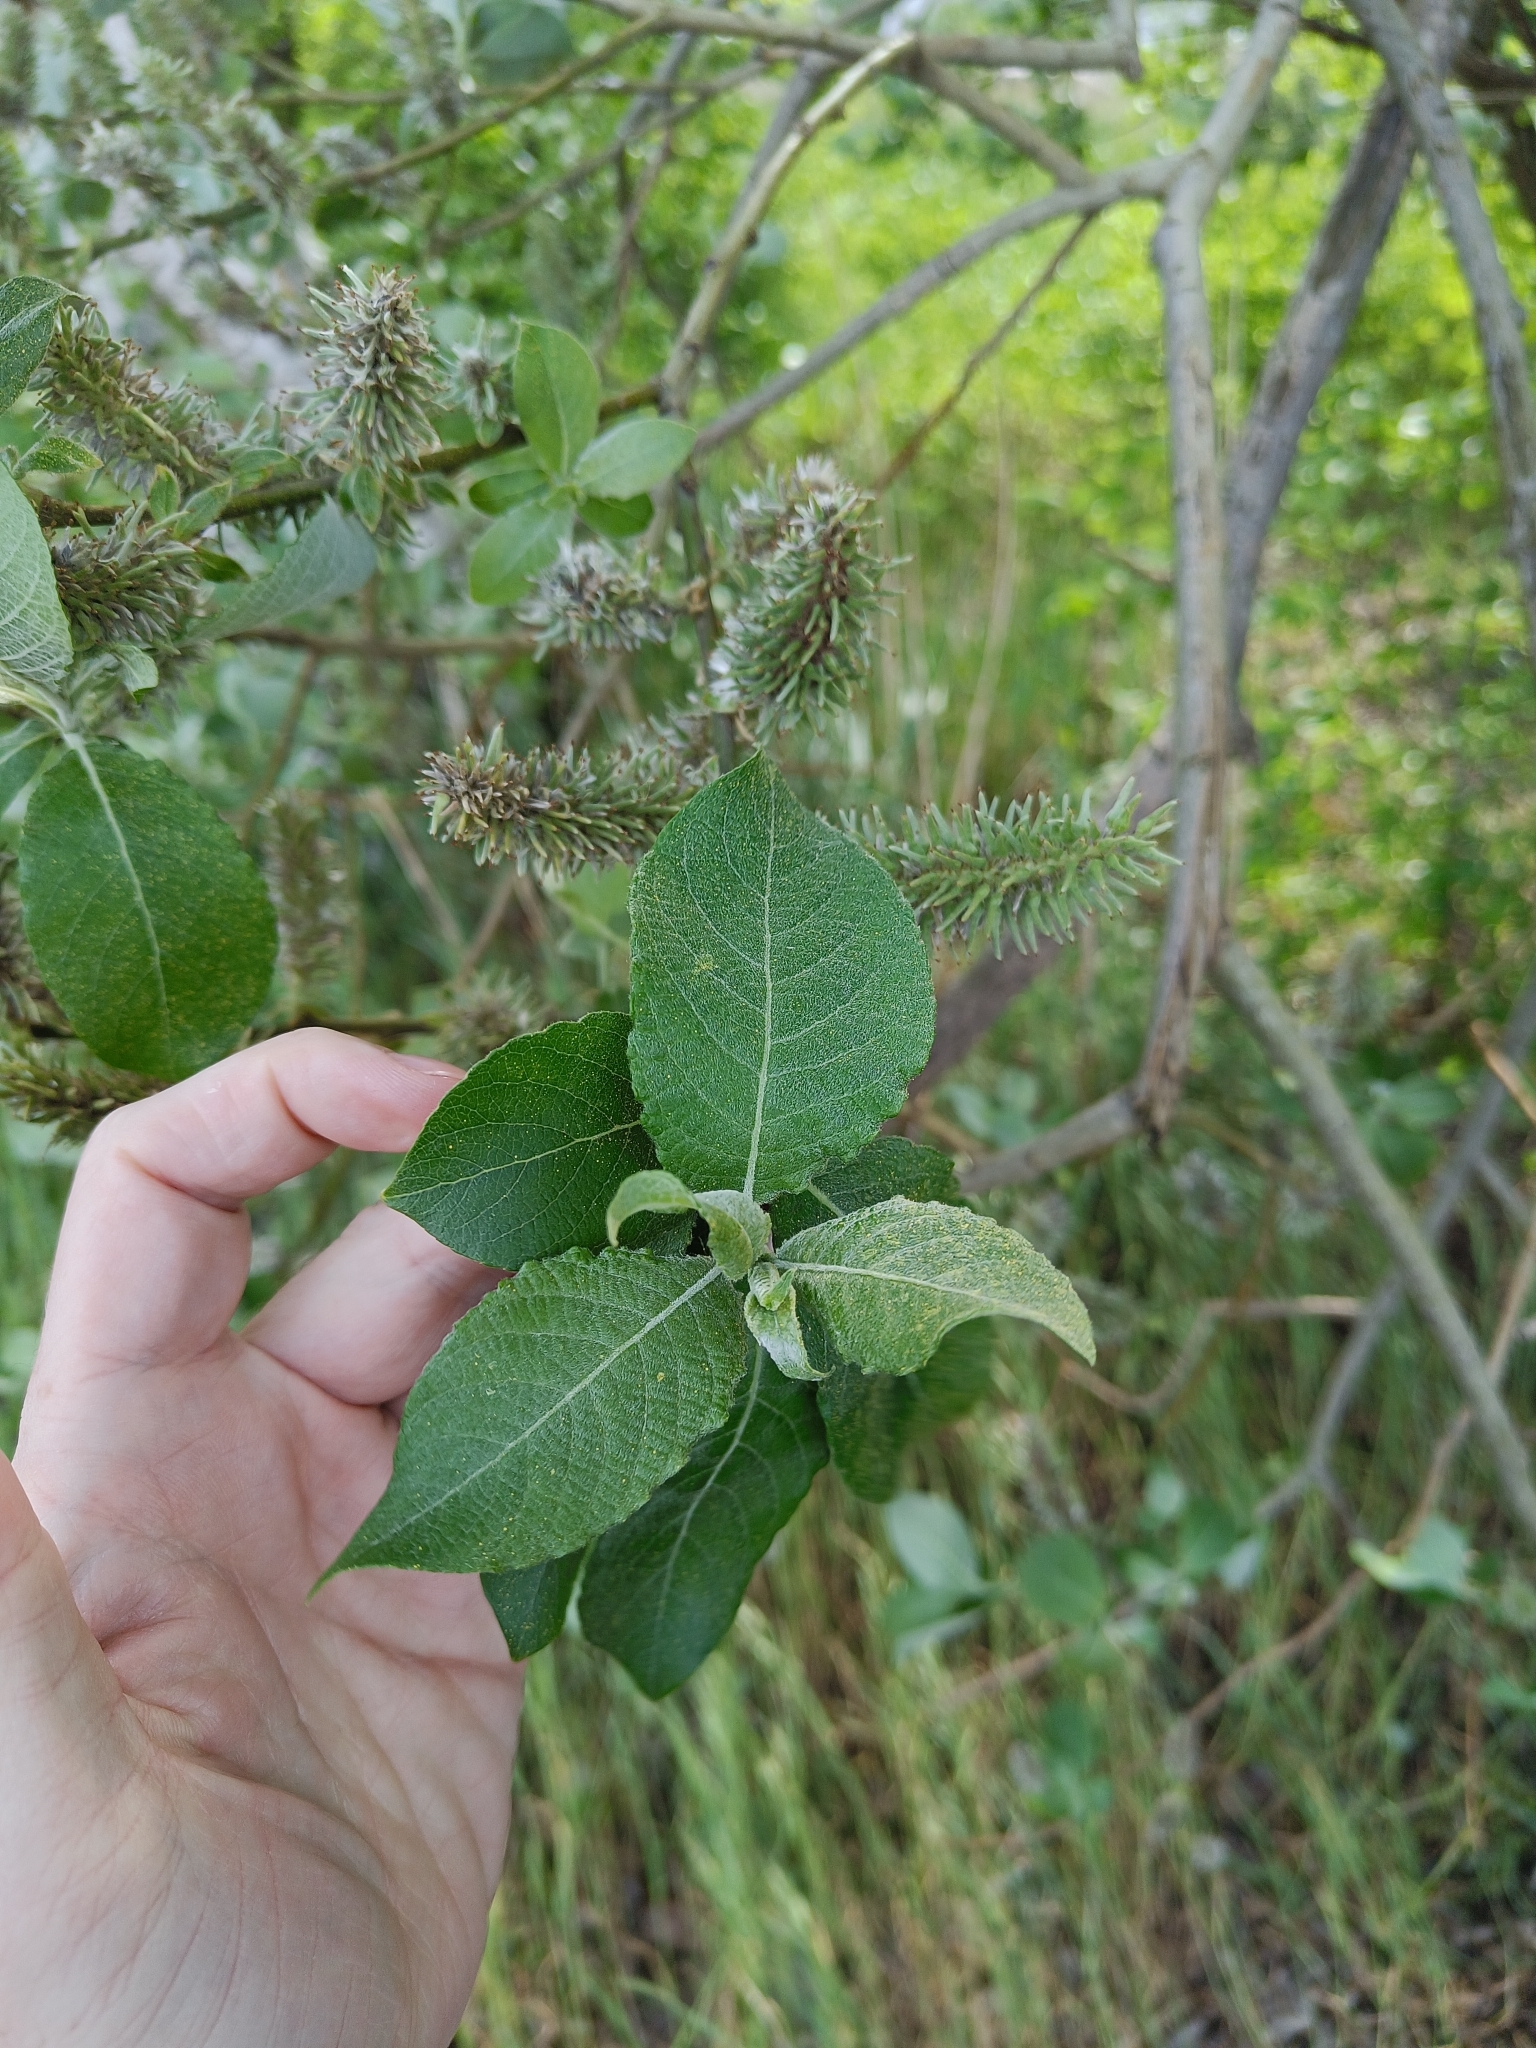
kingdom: Plantae
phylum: Tracheophyta
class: Magnoliopsida
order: Malpighiales
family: Salicaceae
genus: Salix
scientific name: Salix caprea
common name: Goat willow
